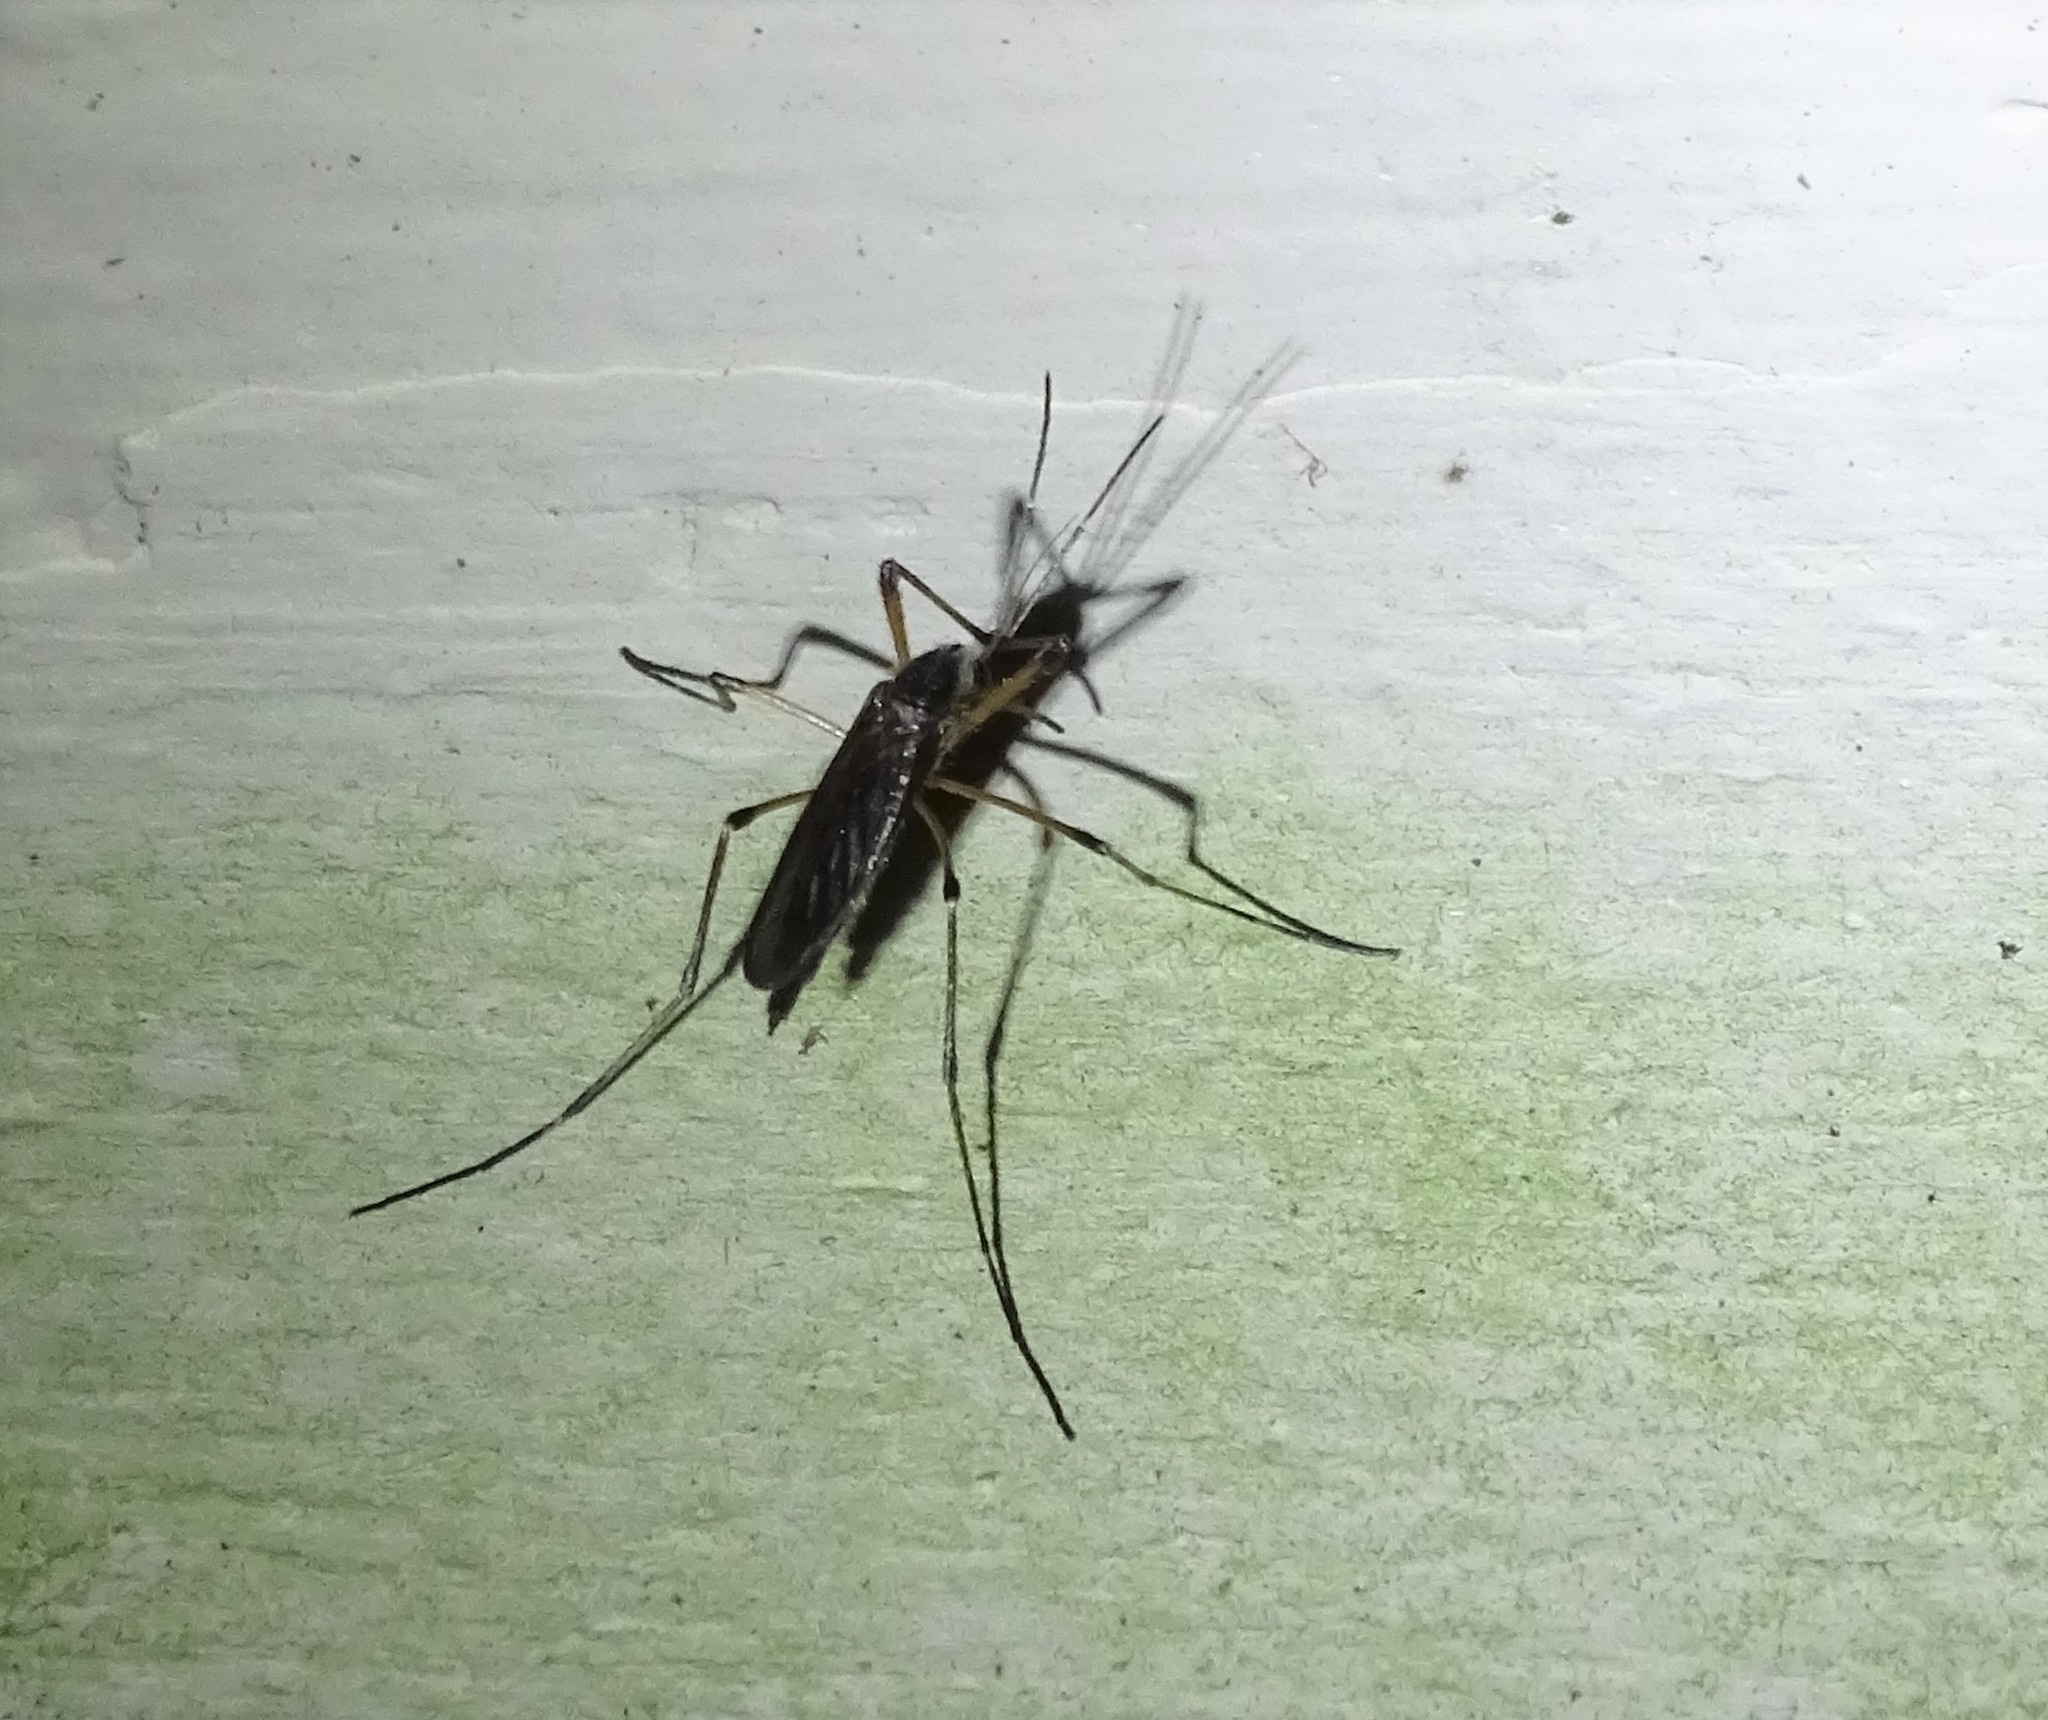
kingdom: Animalia
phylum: Arthropoda
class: Insecta
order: Diptera
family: Culicidae
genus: Psorophora
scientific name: Psorophora howardii
